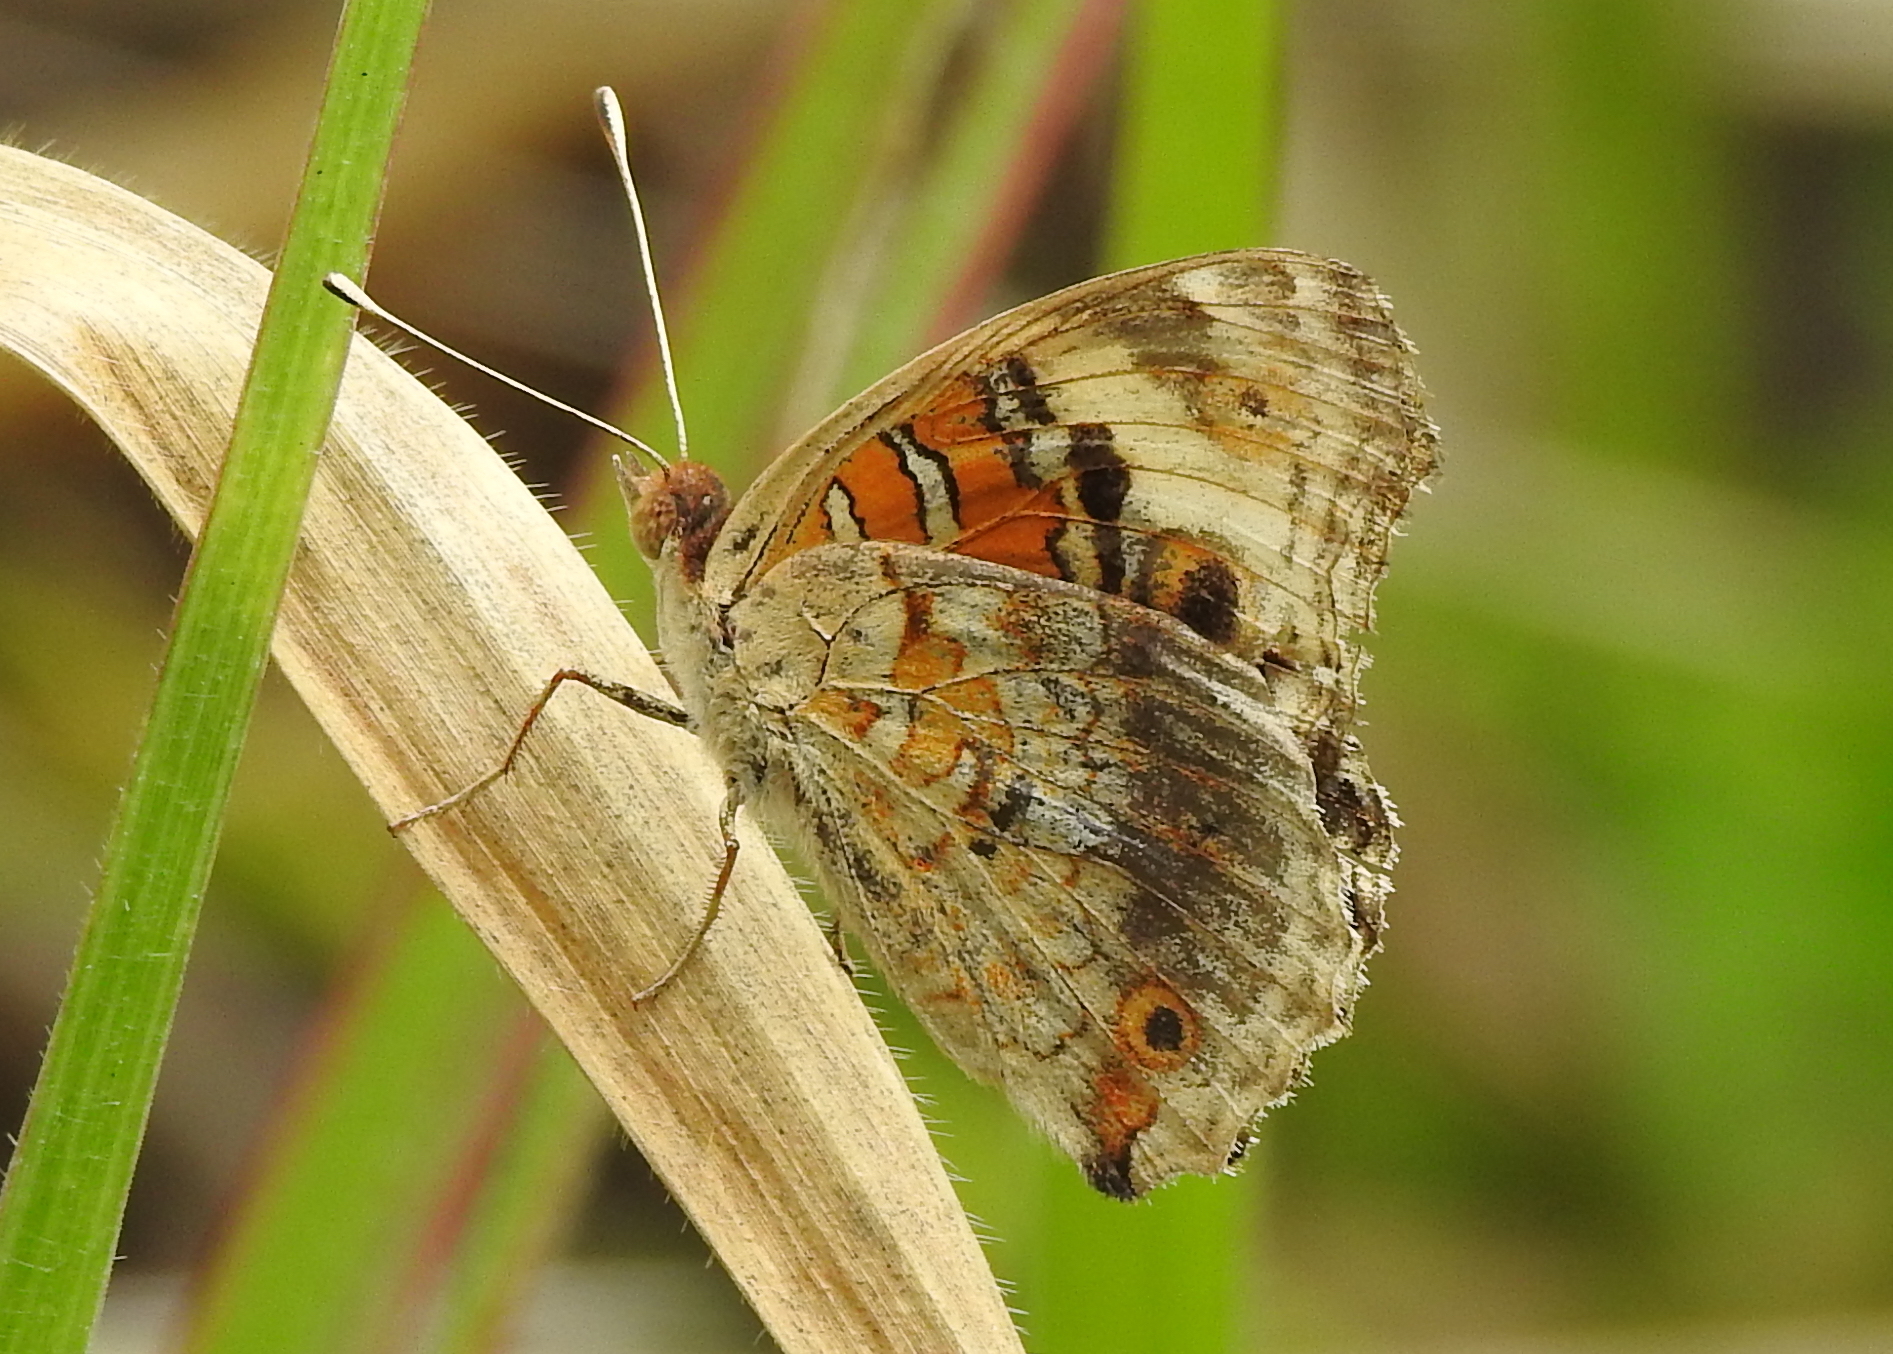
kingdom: Animalia
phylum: Arthropoda
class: Insecta
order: Lepidoptera
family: Nymphalidae
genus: Junonia
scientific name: Junonia orithya
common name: Blue pansy
